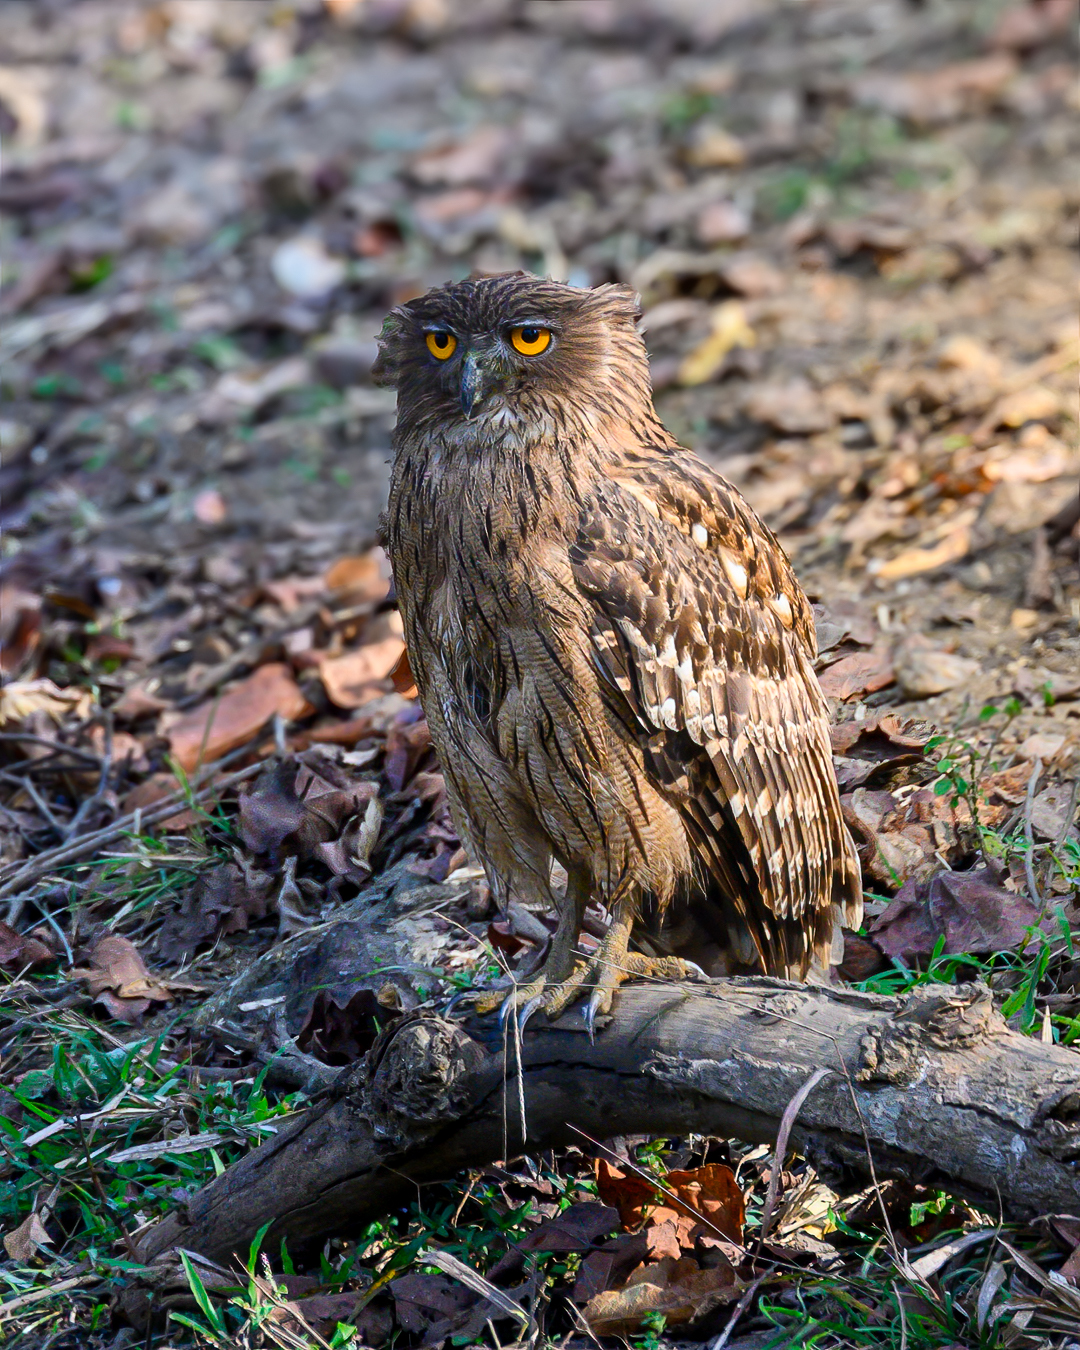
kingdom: Animalia
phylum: Chordata
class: Aves
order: Strigiformes
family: Strigidae
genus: Ketupa
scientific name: Ketupa zeylonensis
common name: Brown fish owl
